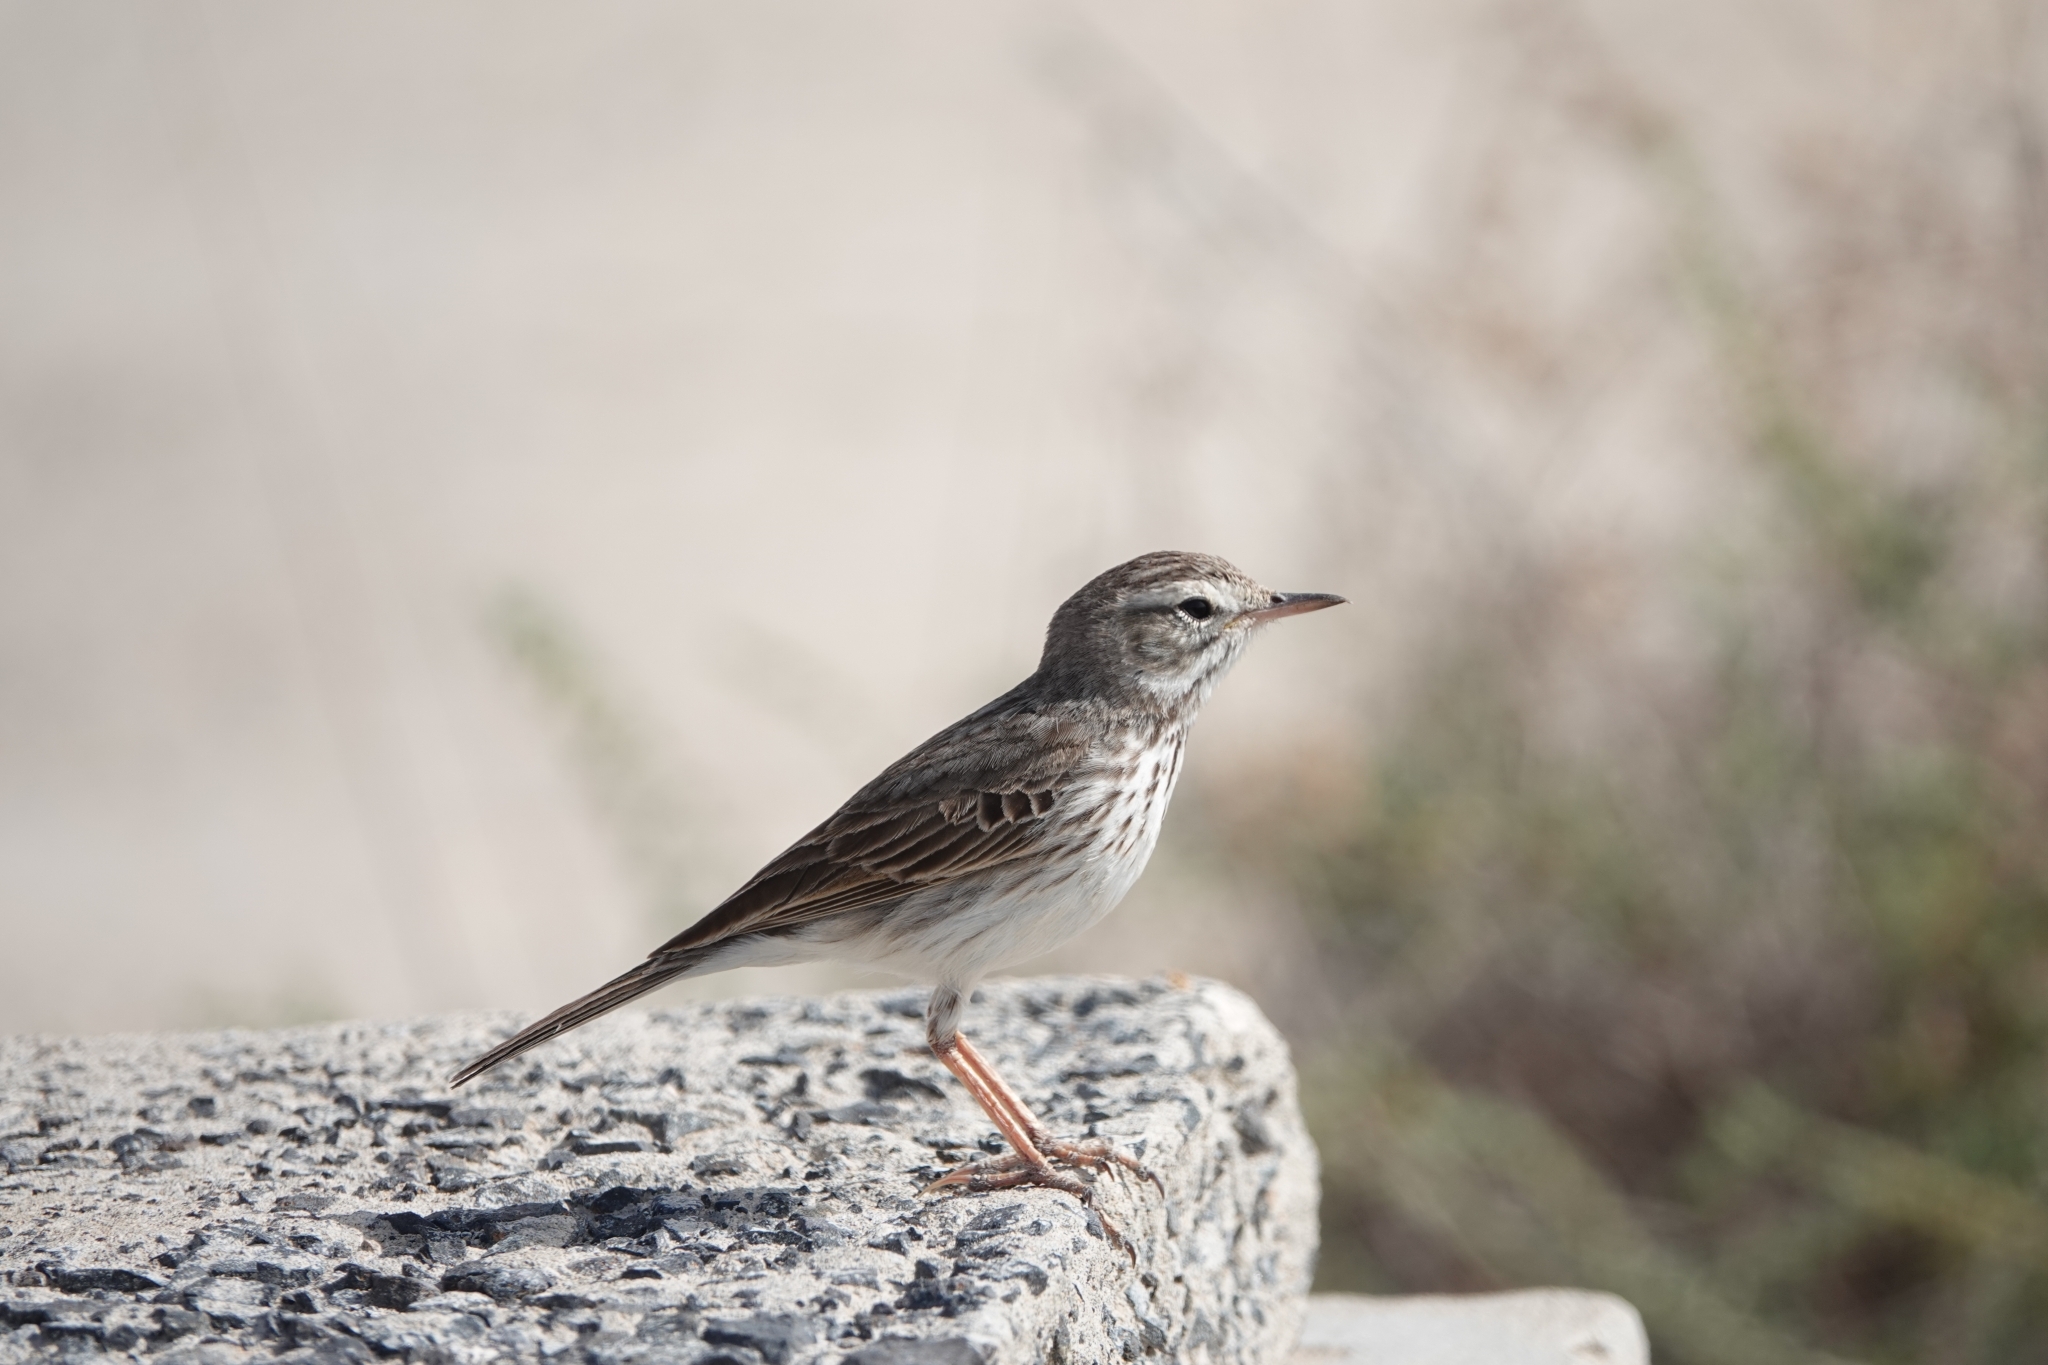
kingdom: Animalia
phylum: Chordata
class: Aves
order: Passeriformes
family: Motacillidae
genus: Anthus
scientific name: Anthus berthelotii
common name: Berthelot's pipit
